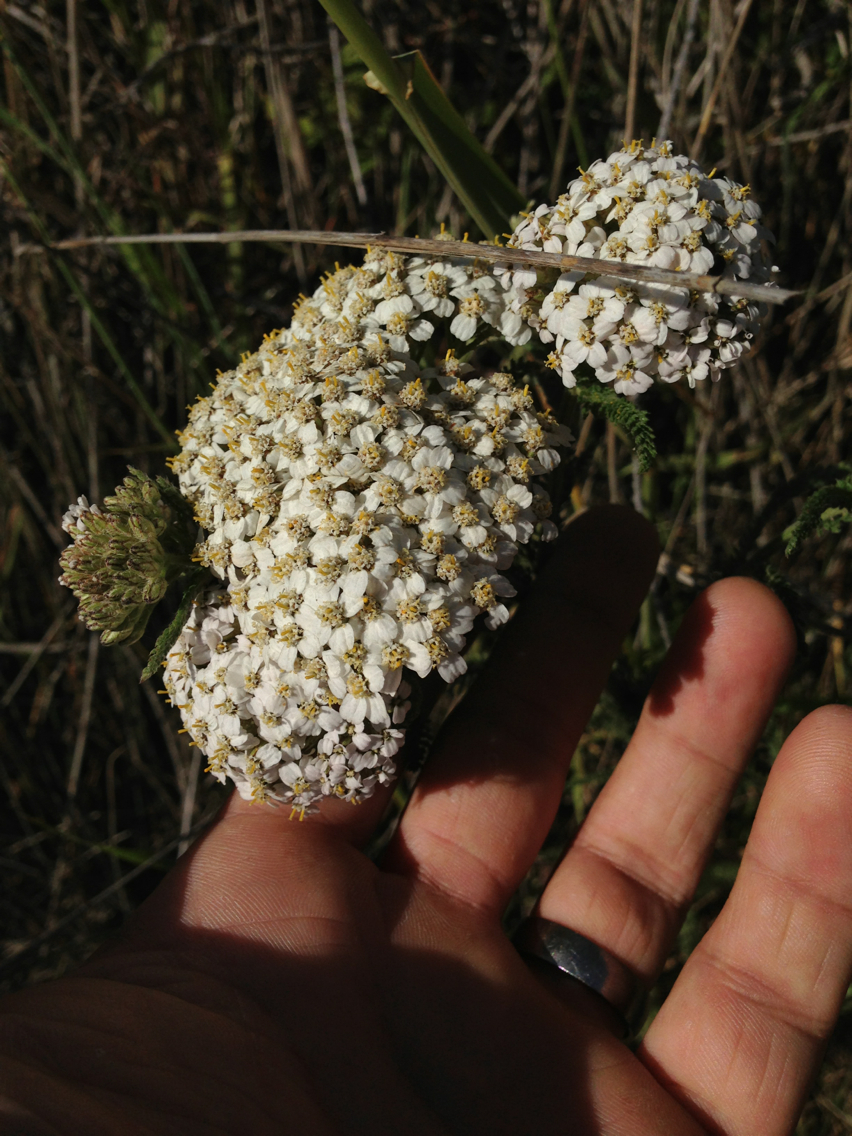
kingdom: Plantae
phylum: Tracheophyta
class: Magnoliopsida
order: Asterales
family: Asteraceae
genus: Achillea
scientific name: Achillea millefolium
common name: Yarrow
